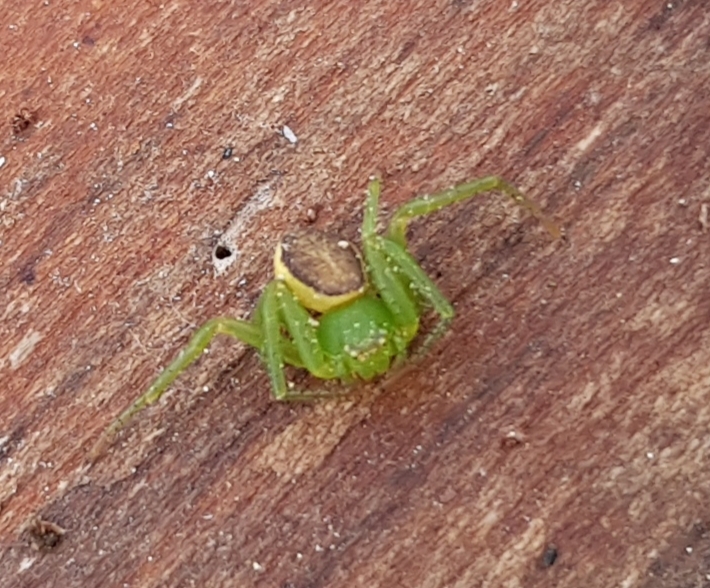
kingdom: Animalia
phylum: Arthropoda
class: Arachnida
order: Araneae
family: Thomisidae
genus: Diaea
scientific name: Diaea dorsata
